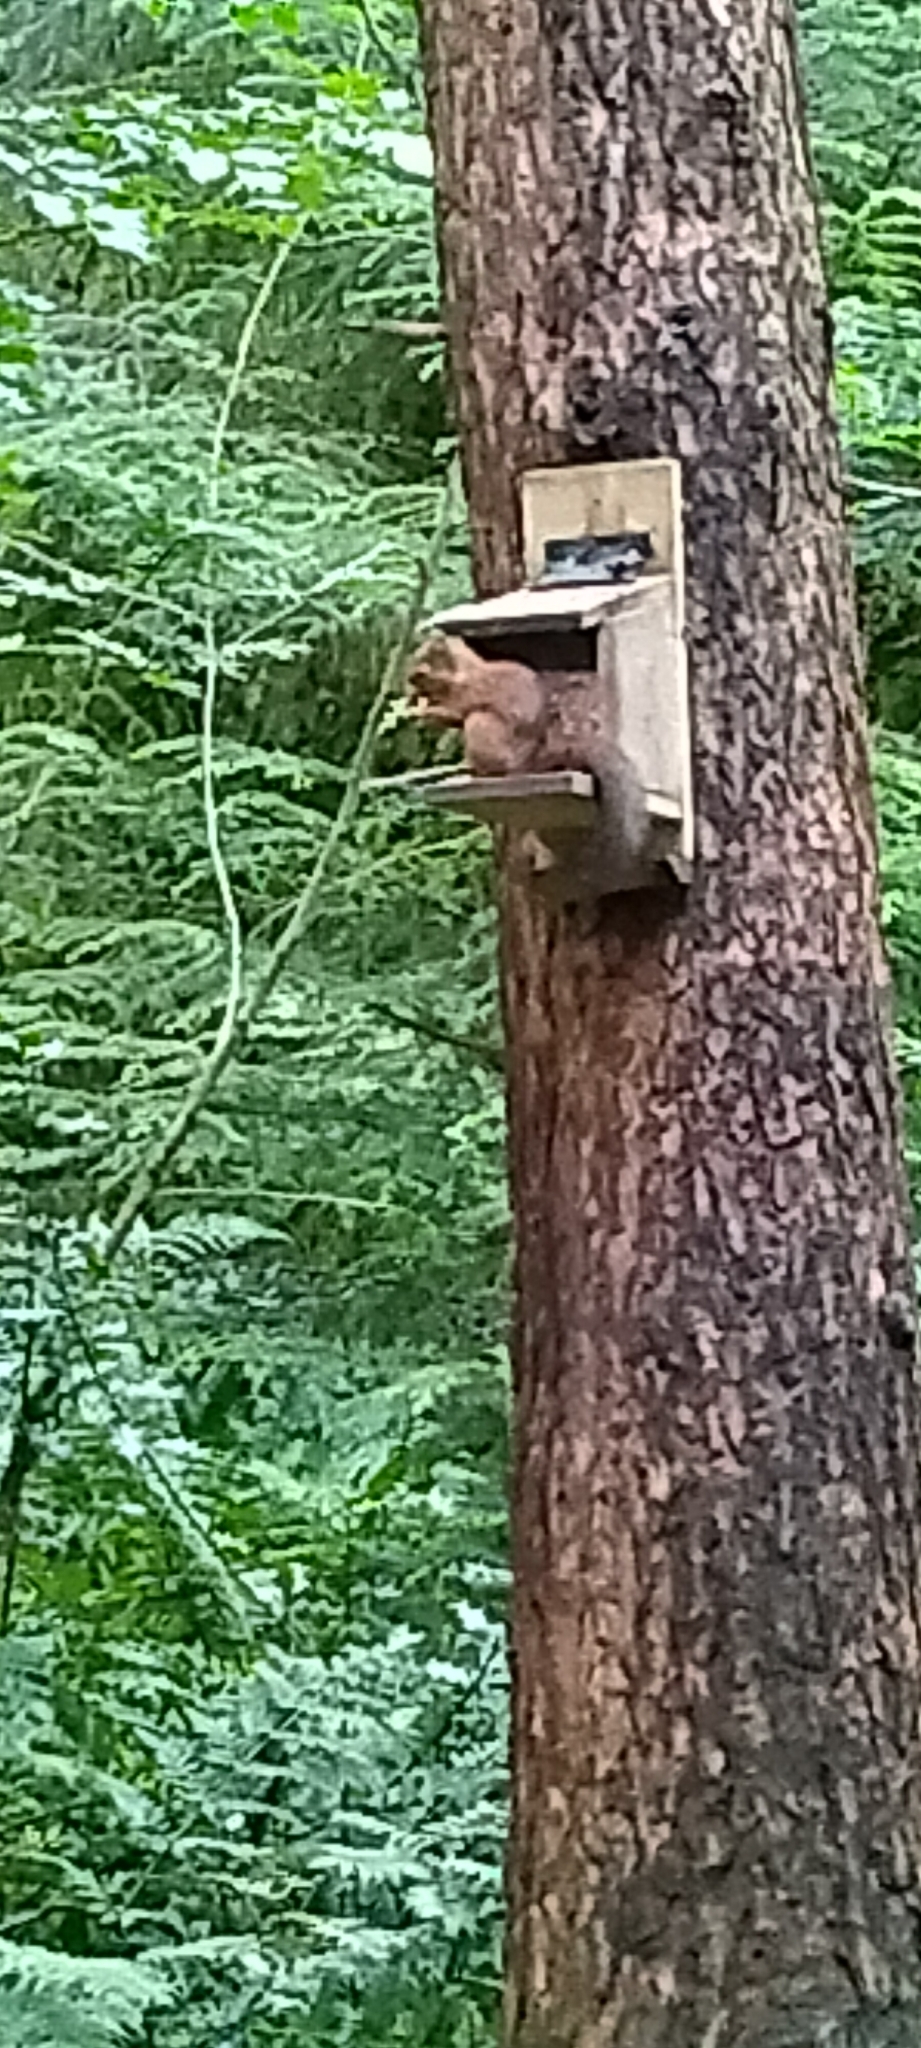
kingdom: Animalia
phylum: Chordata
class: Mammalia
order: Rodentia
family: Sciuridae
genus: Sciurus
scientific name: Sciurus vulgaris
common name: Eurasian red squirrel
